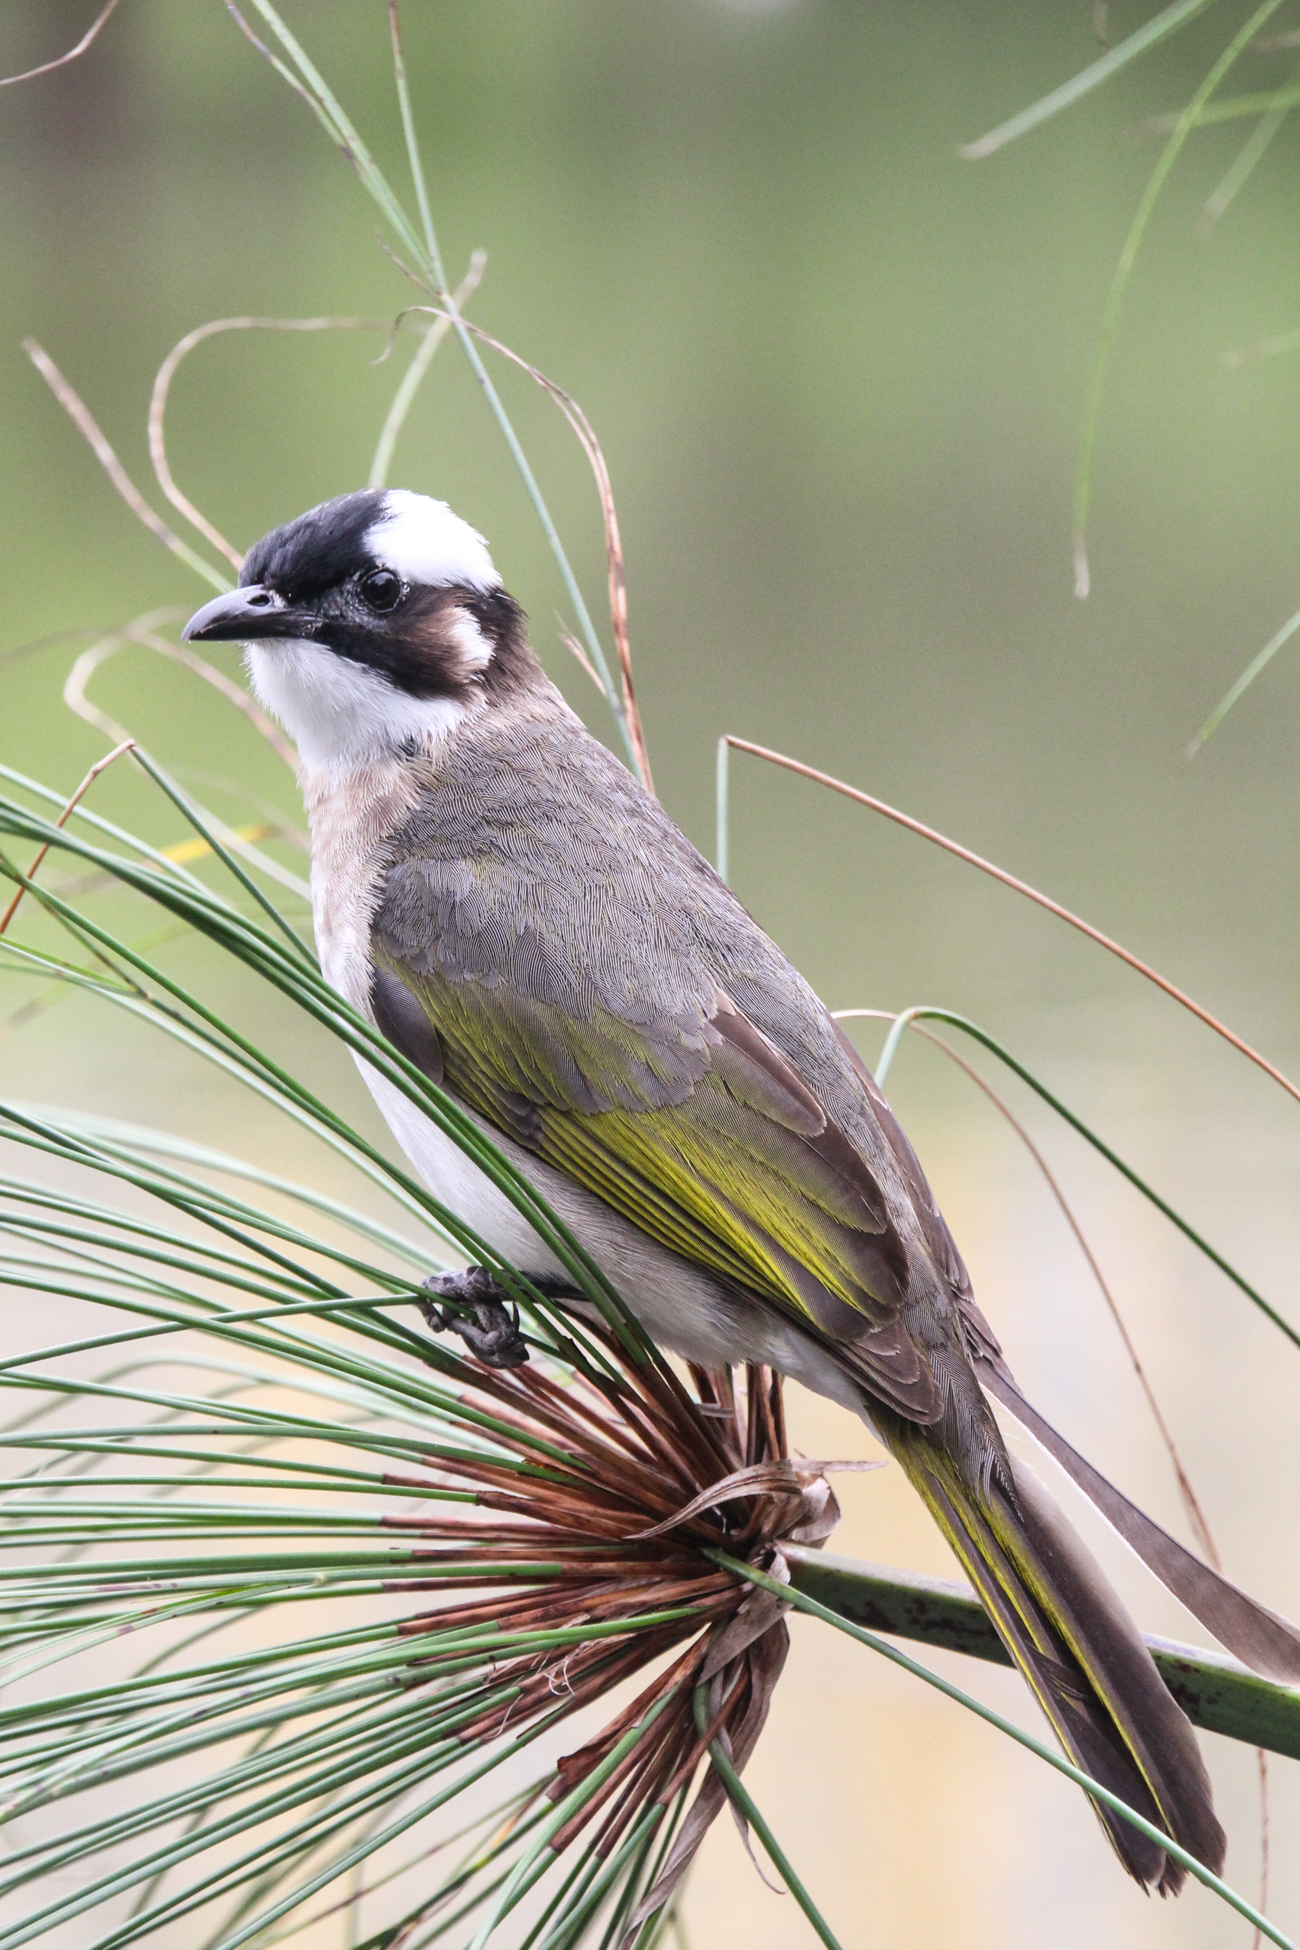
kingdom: Animalia
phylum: Chordata
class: Aves
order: Passeriformes
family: Pycnonotidae
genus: Pycnonotus
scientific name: Pycnonotus sinensis
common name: Light-vented bulbul
